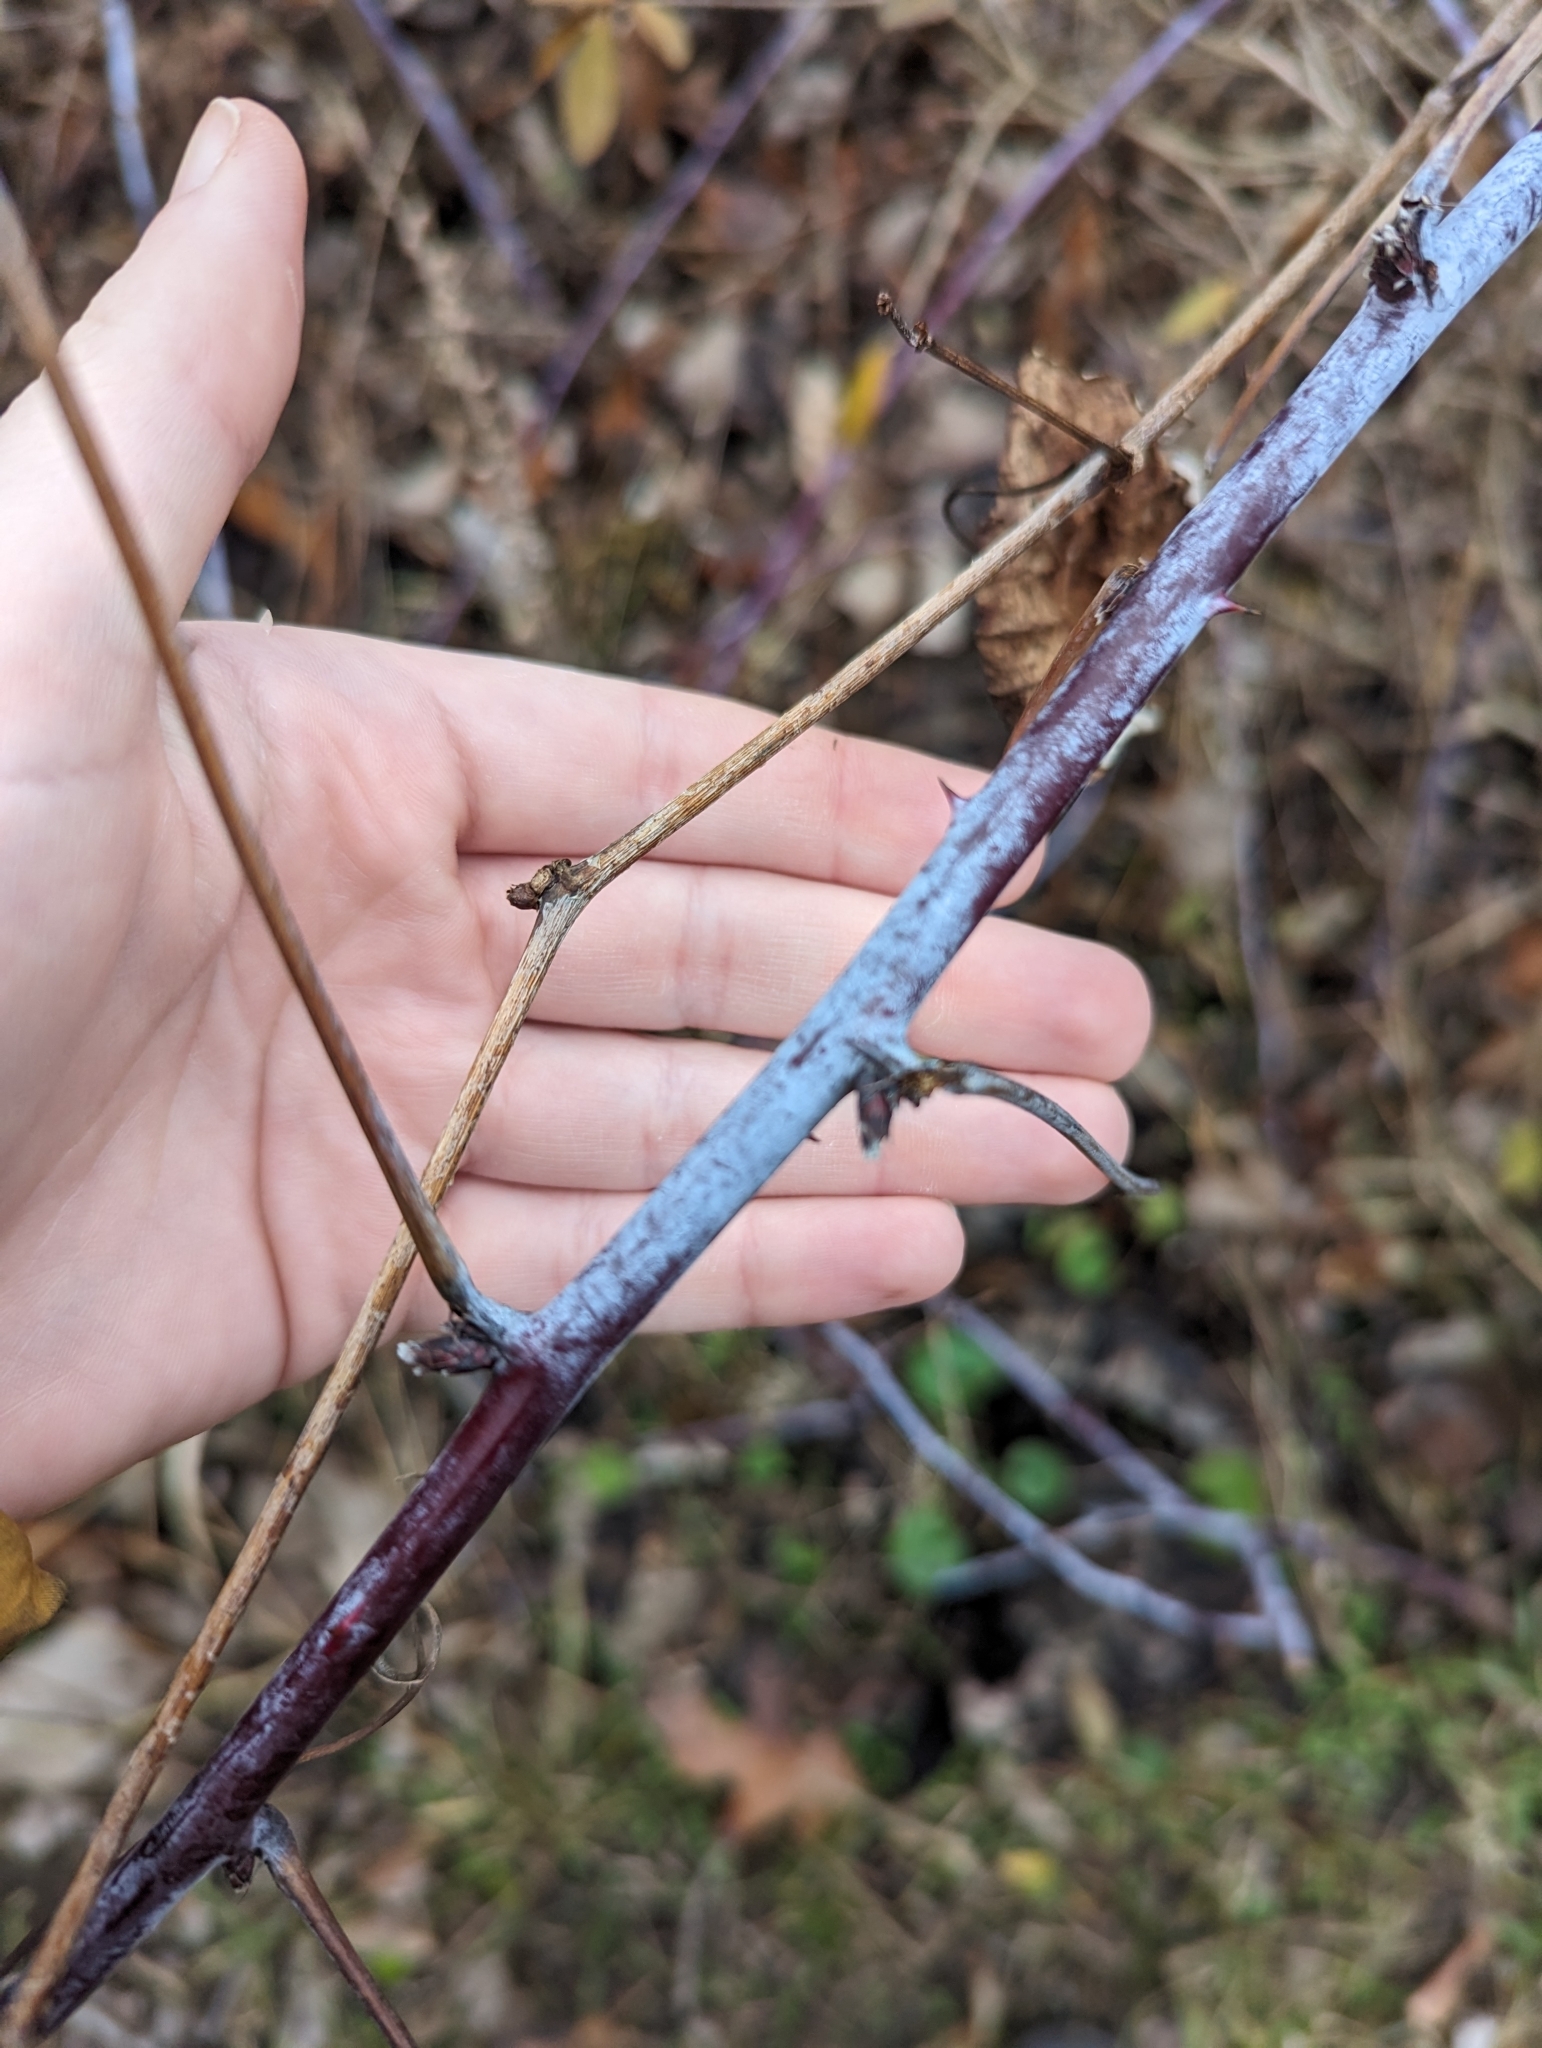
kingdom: Plantae
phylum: Tracheophyta
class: Magnoliopsida
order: Rosales
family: Rosaceae
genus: Rubus
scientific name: Rubus occidentalis
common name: Black raspberry
